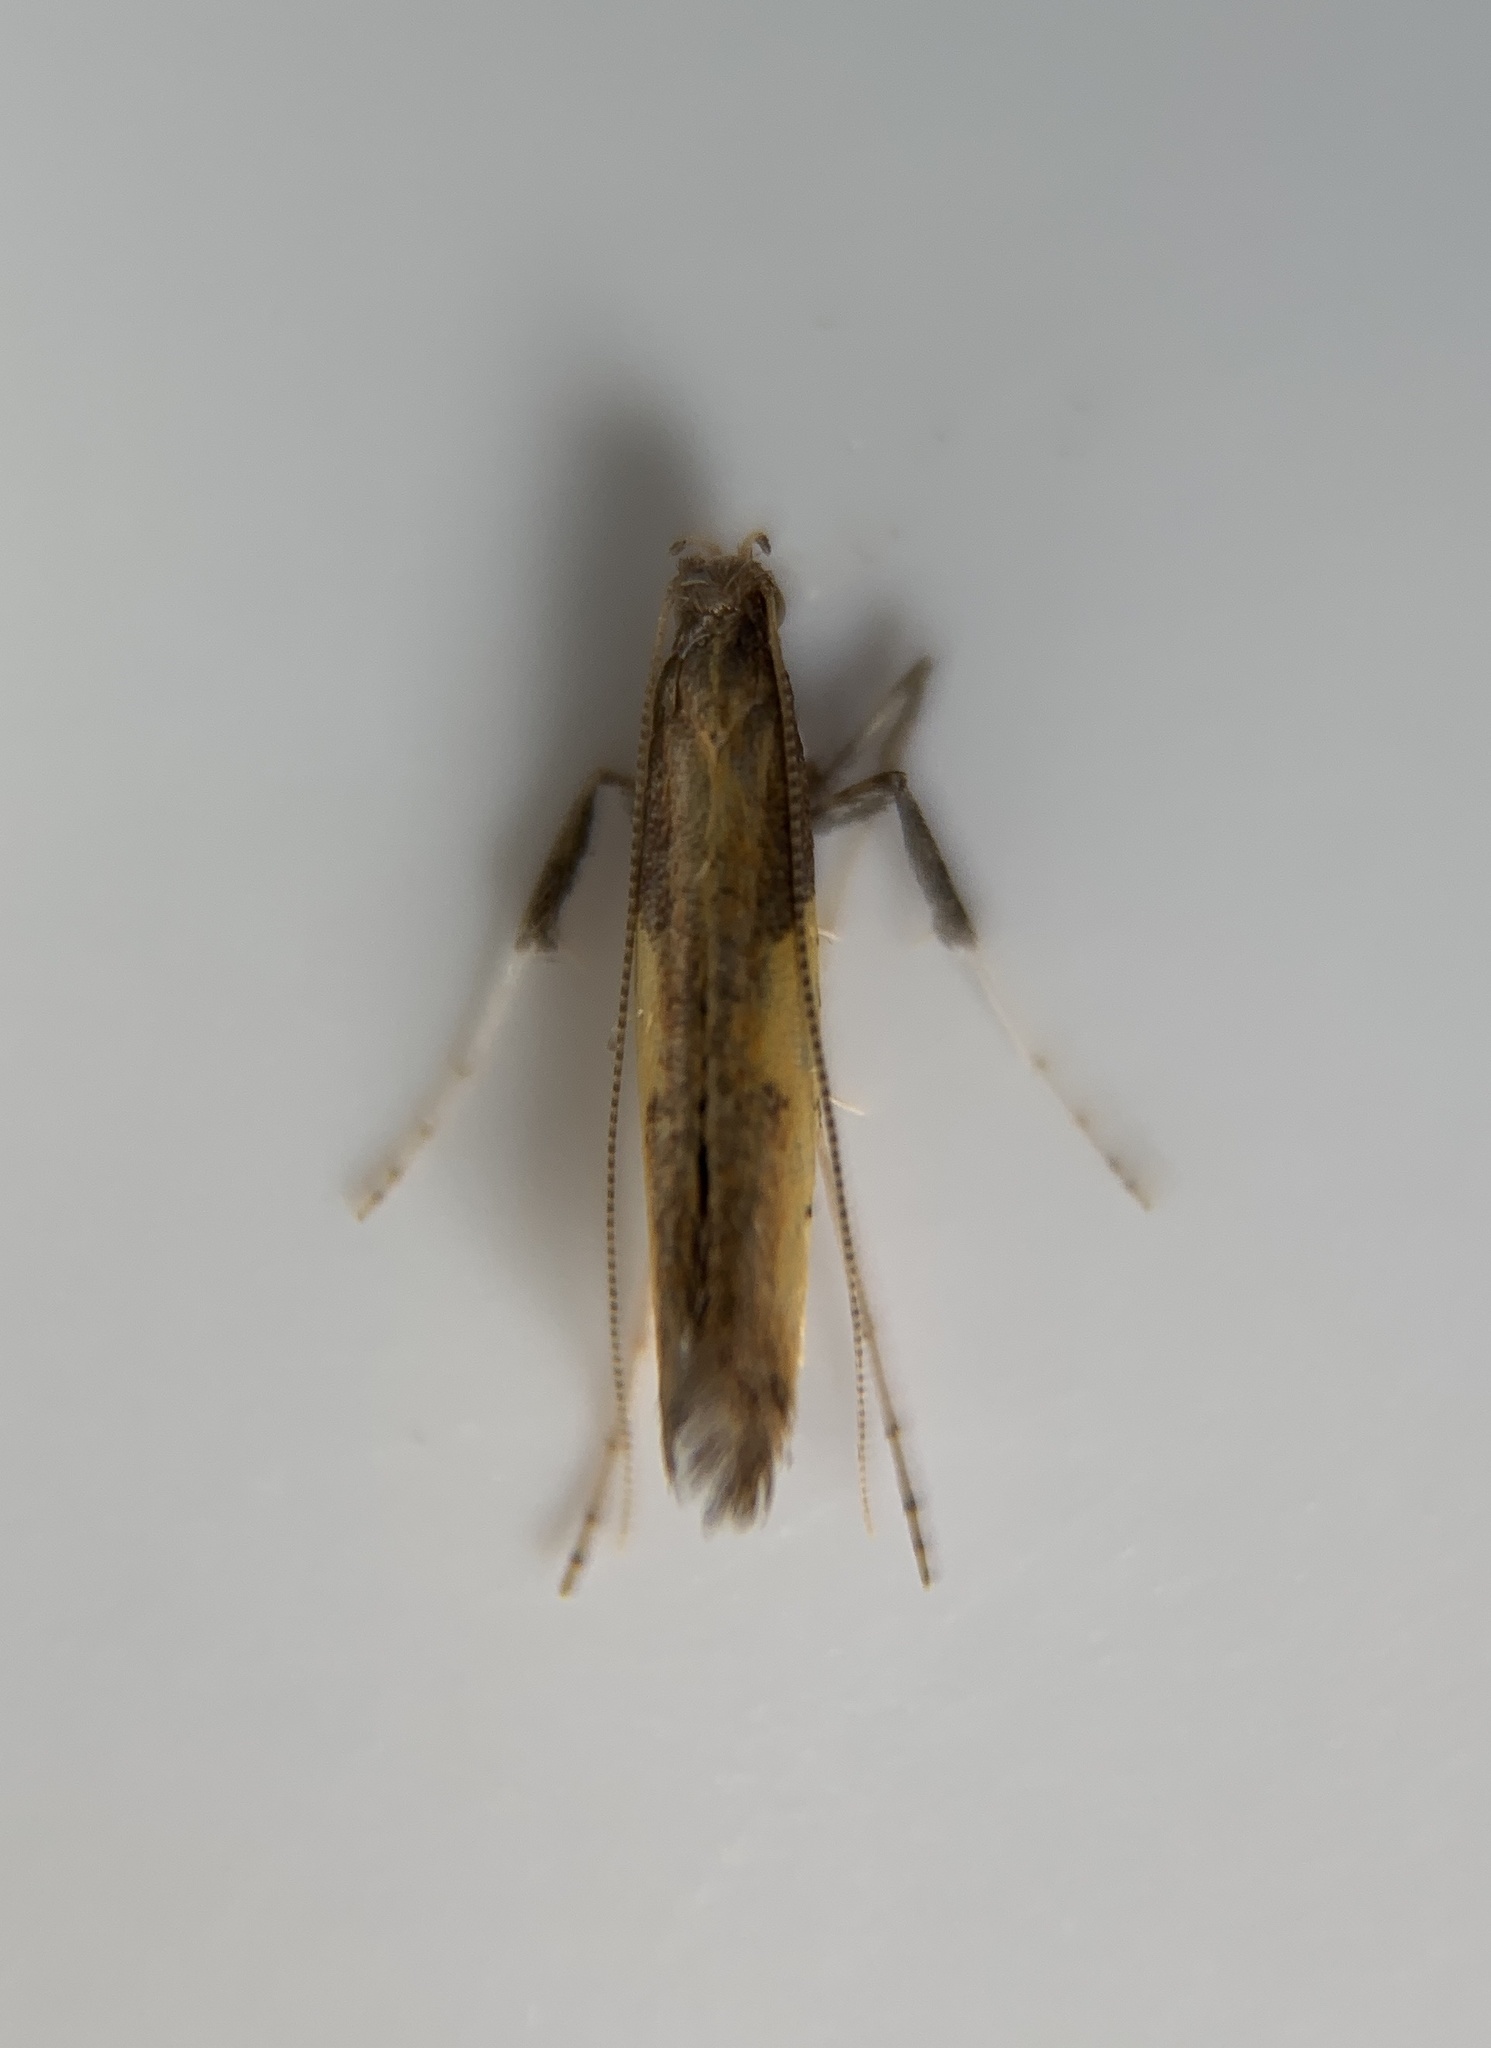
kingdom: Animalia
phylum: Arthropoda
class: Insecta
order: Lepidoptera
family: Gracillariidae
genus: Caloptilia
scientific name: Caloptilia azaleella
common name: Azalea leafminer
